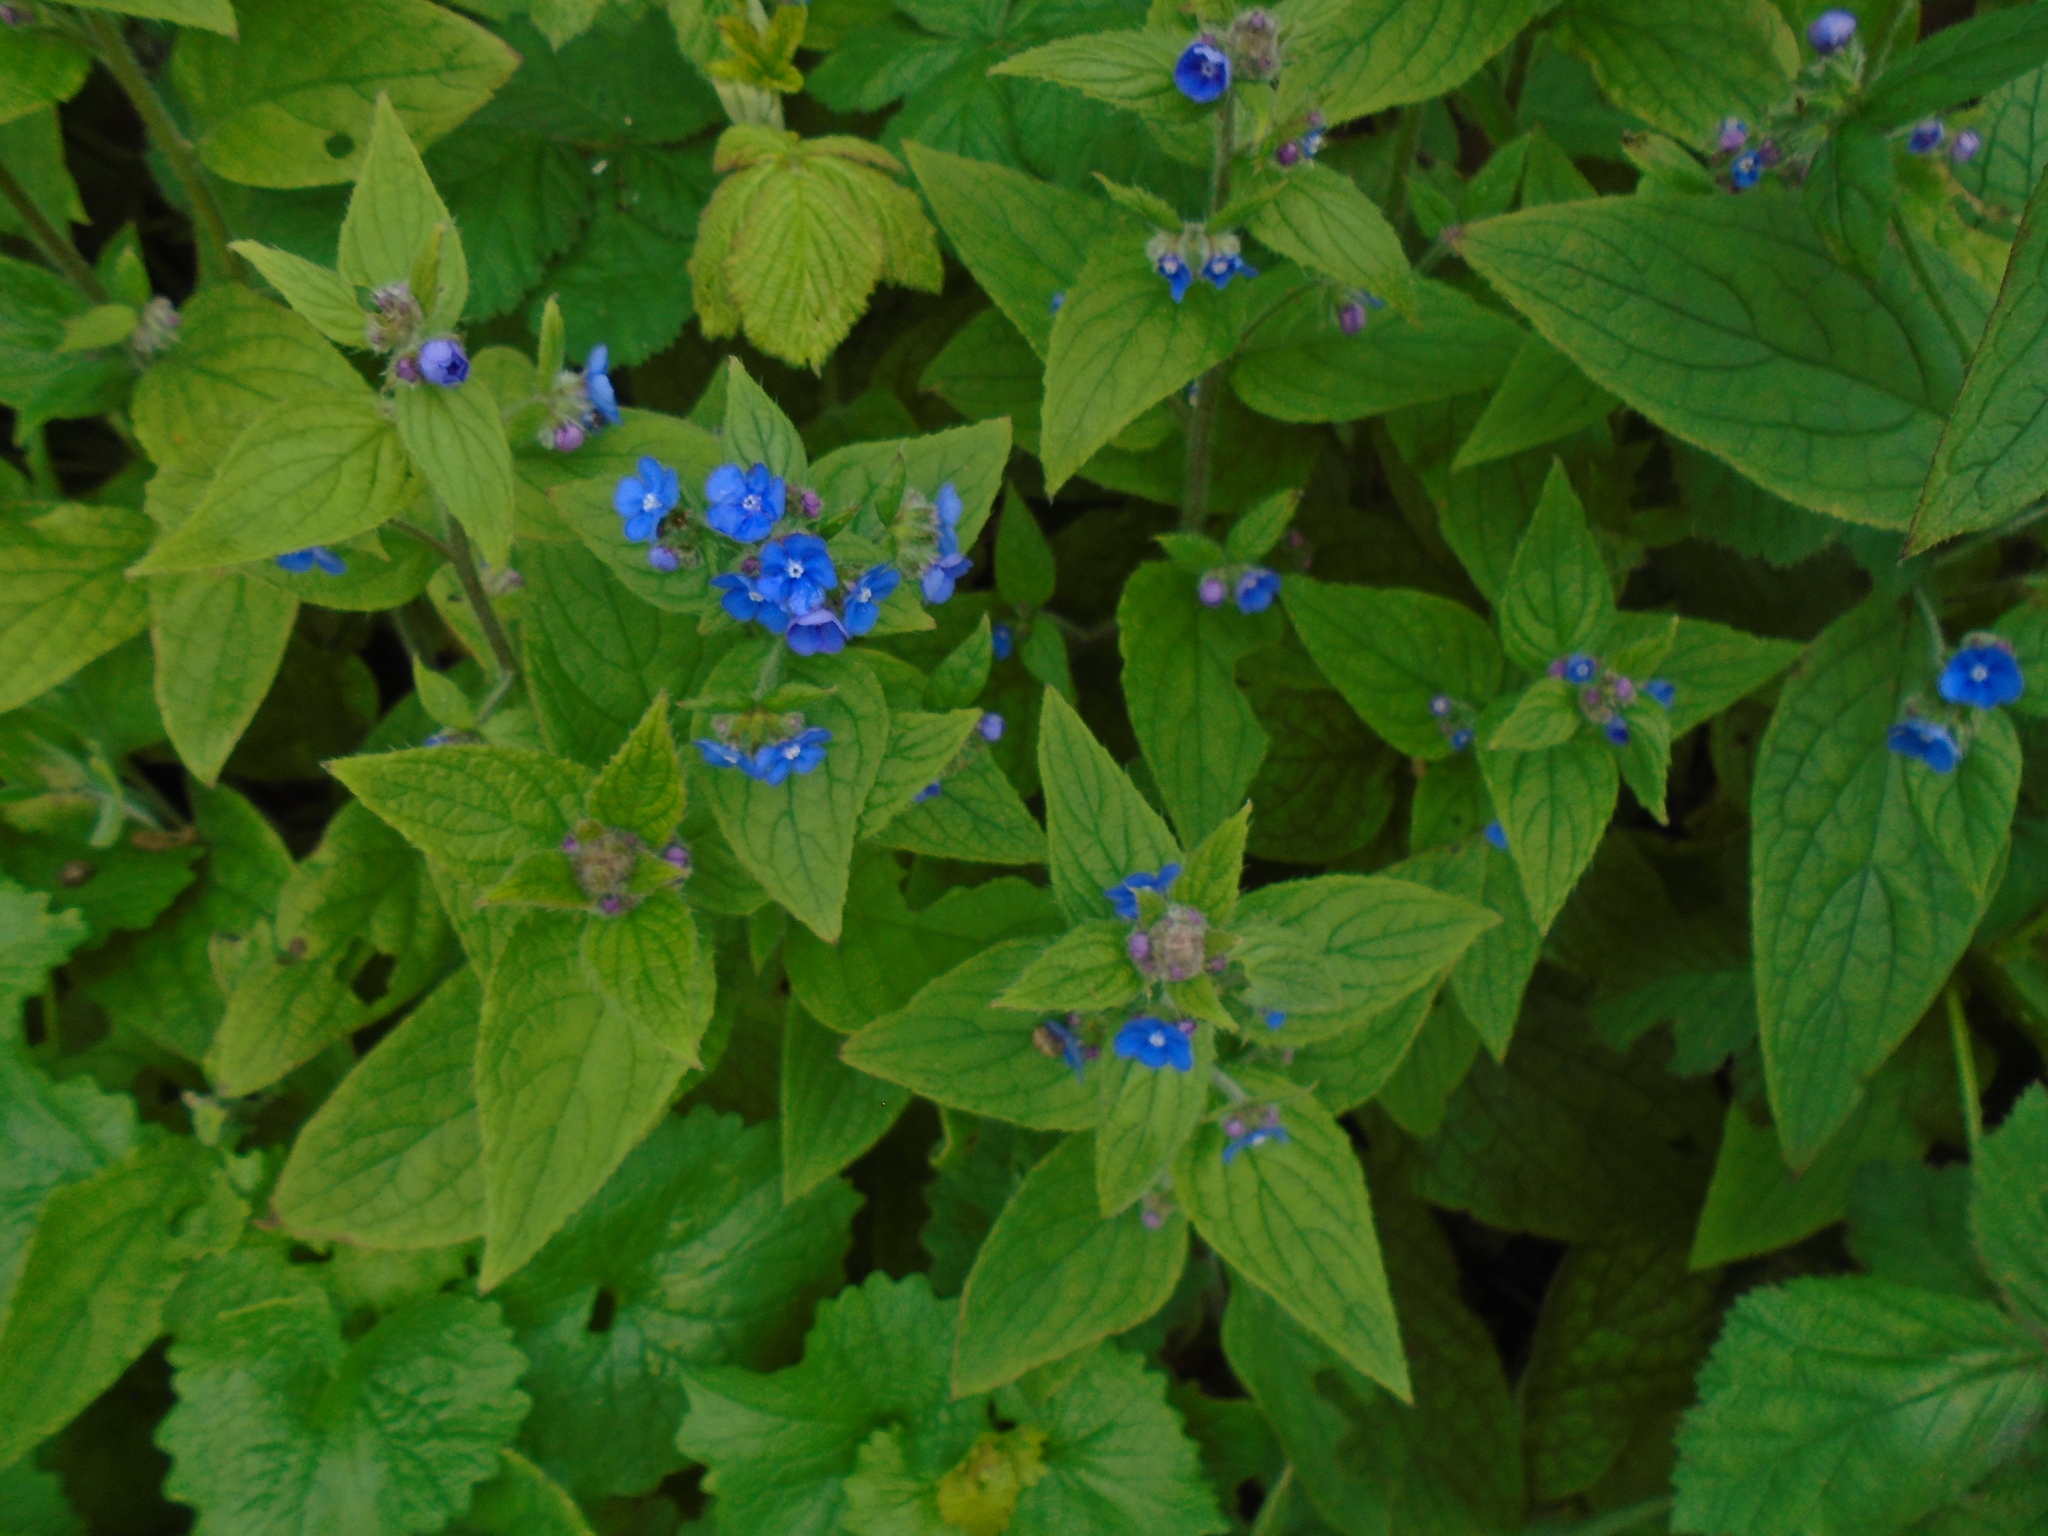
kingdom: Plantae
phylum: Tracheophyta
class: Magnoliopsida
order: Boraginales
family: Boraginaceae
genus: Pentaglottis
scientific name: Pentaglottis sempervirens
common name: Green alkanet
